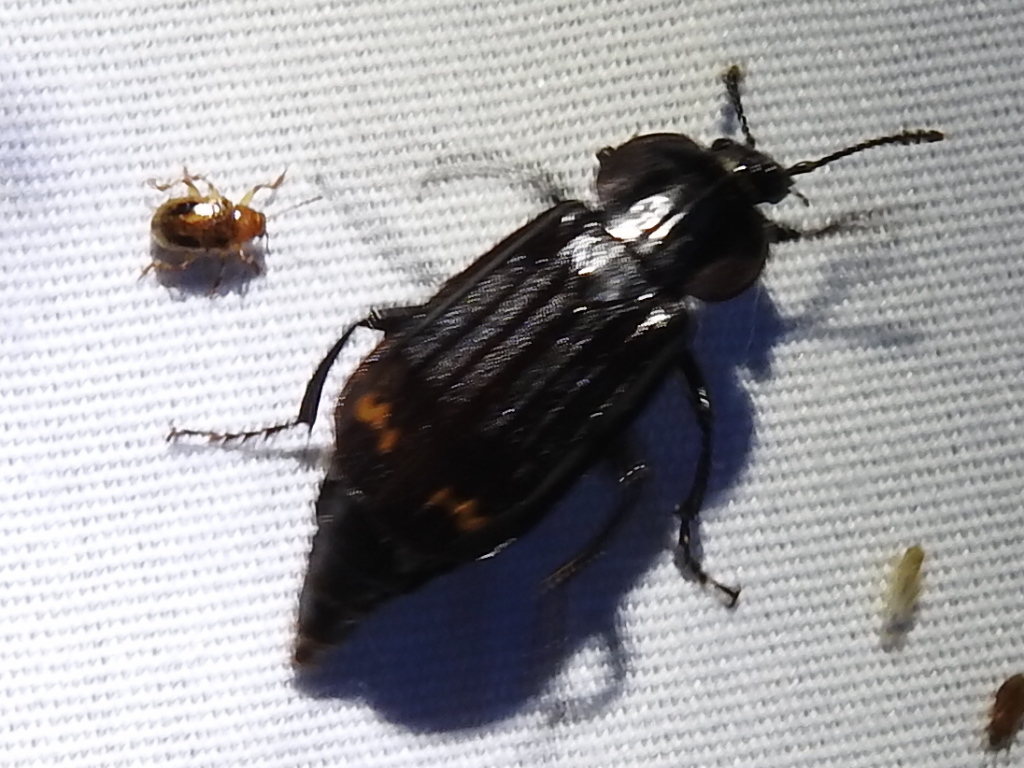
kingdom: Animalia
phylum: Arthropoda
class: Insecta
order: Coleoptera
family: Staphylinidae
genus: Necrodes
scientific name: Necrodes surinamensis
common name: Red-lined carrion beetle
